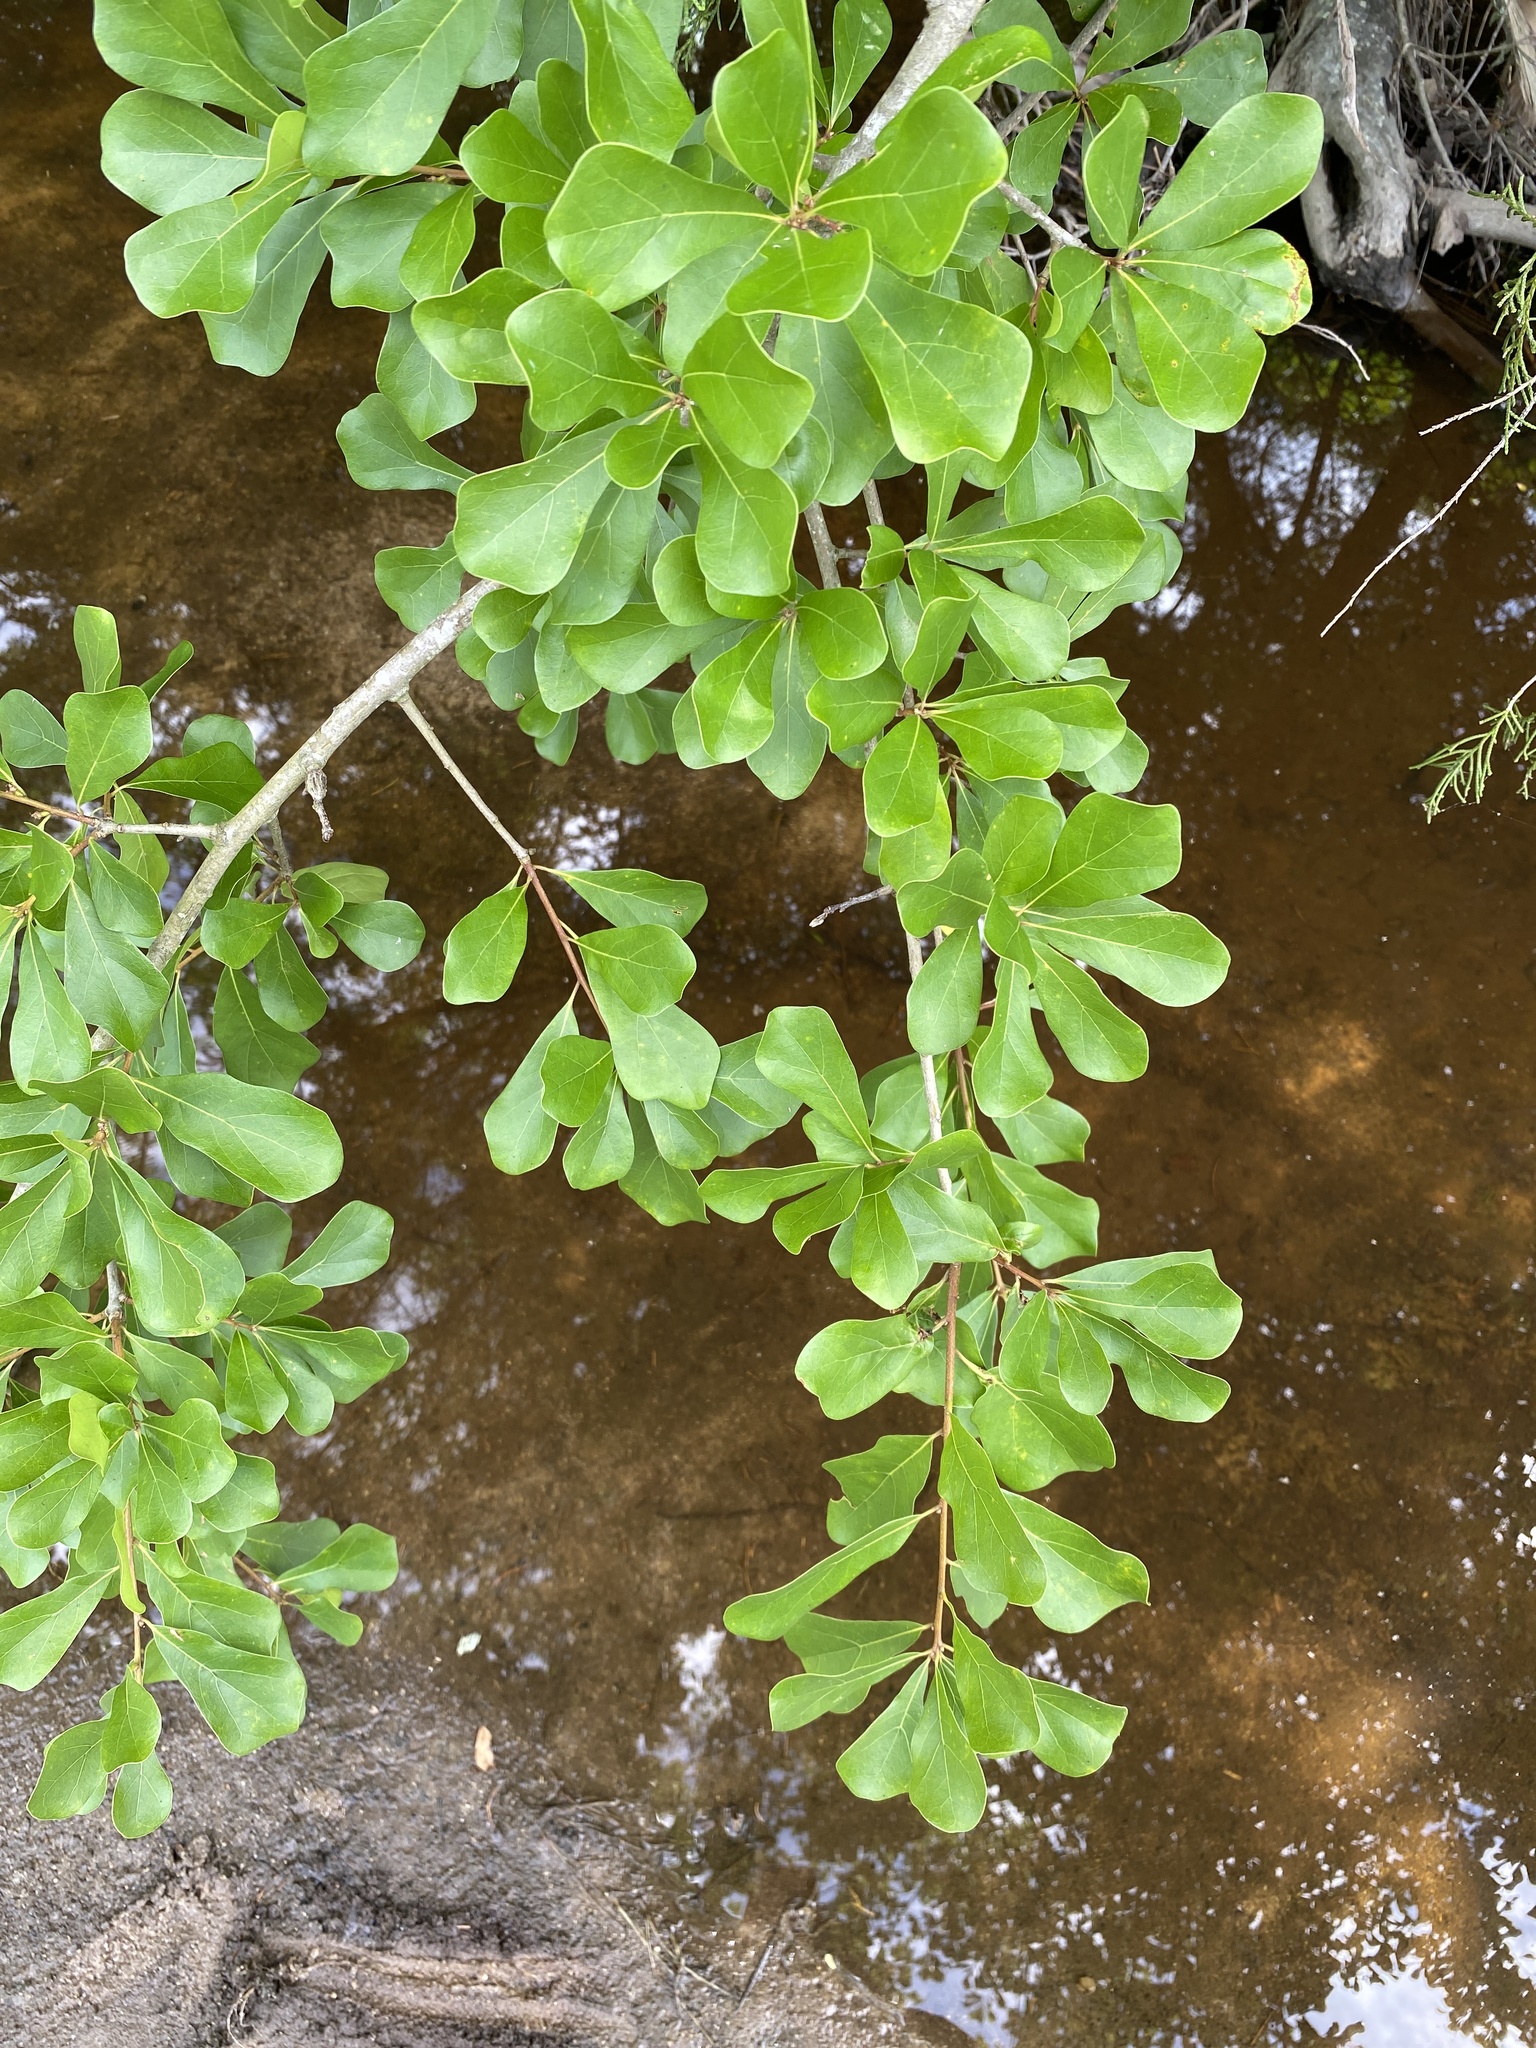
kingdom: Plantae
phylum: Tracheophyta
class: Magnoliopsida
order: Fagales
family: Fagaceae
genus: Quercus
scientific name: Quercus nigra
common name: Water oak
